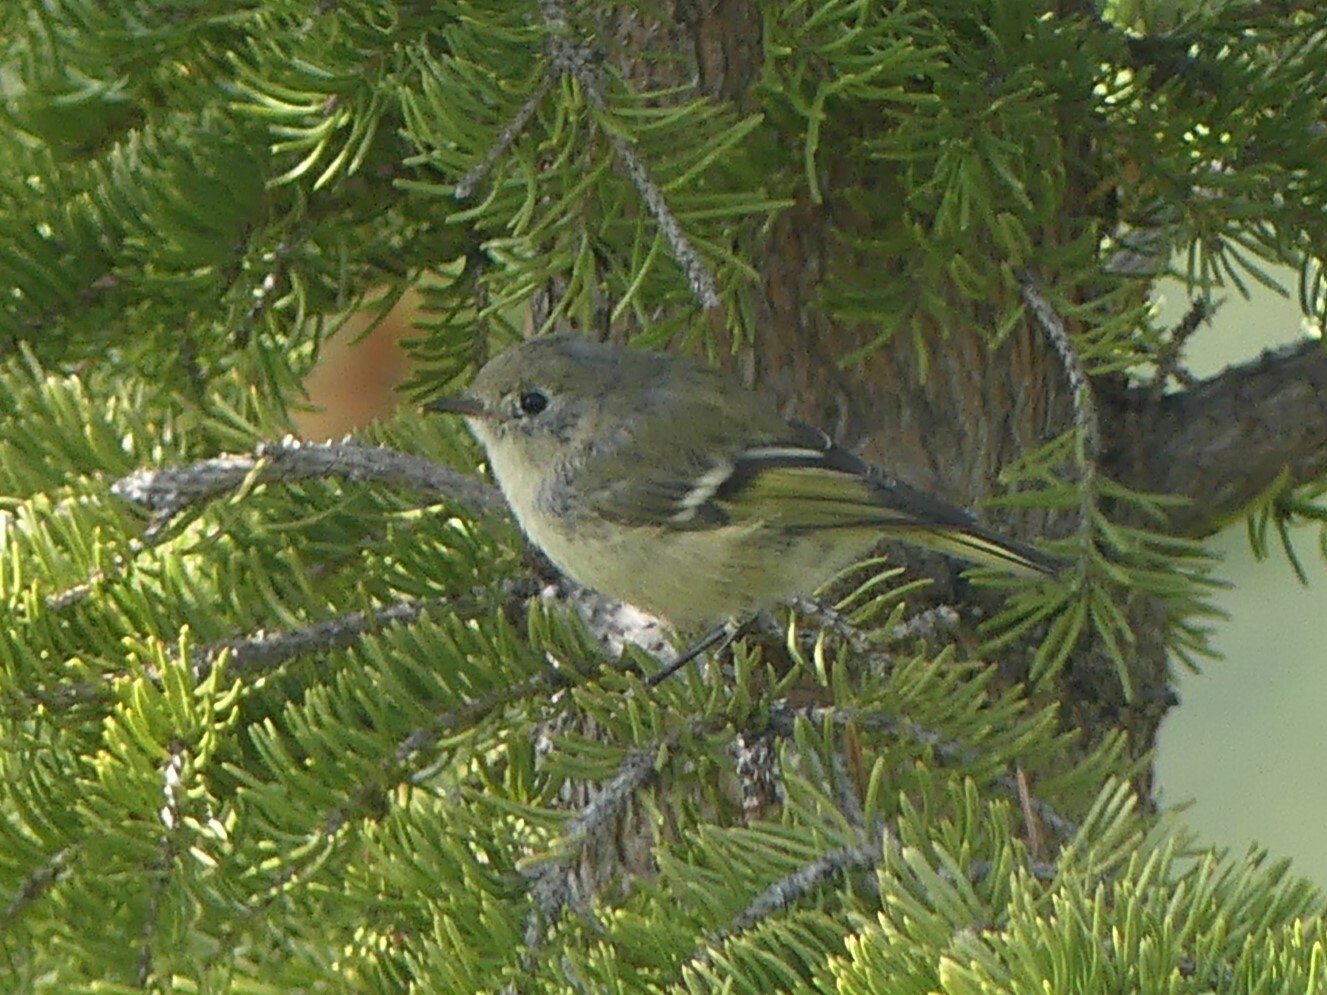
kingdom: Animalia
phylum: Chordata
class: Aves
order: Passeriformes
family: Regulidae
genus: Regulus
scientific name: Regulus calendula
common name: Ruby-crowned kinglet
